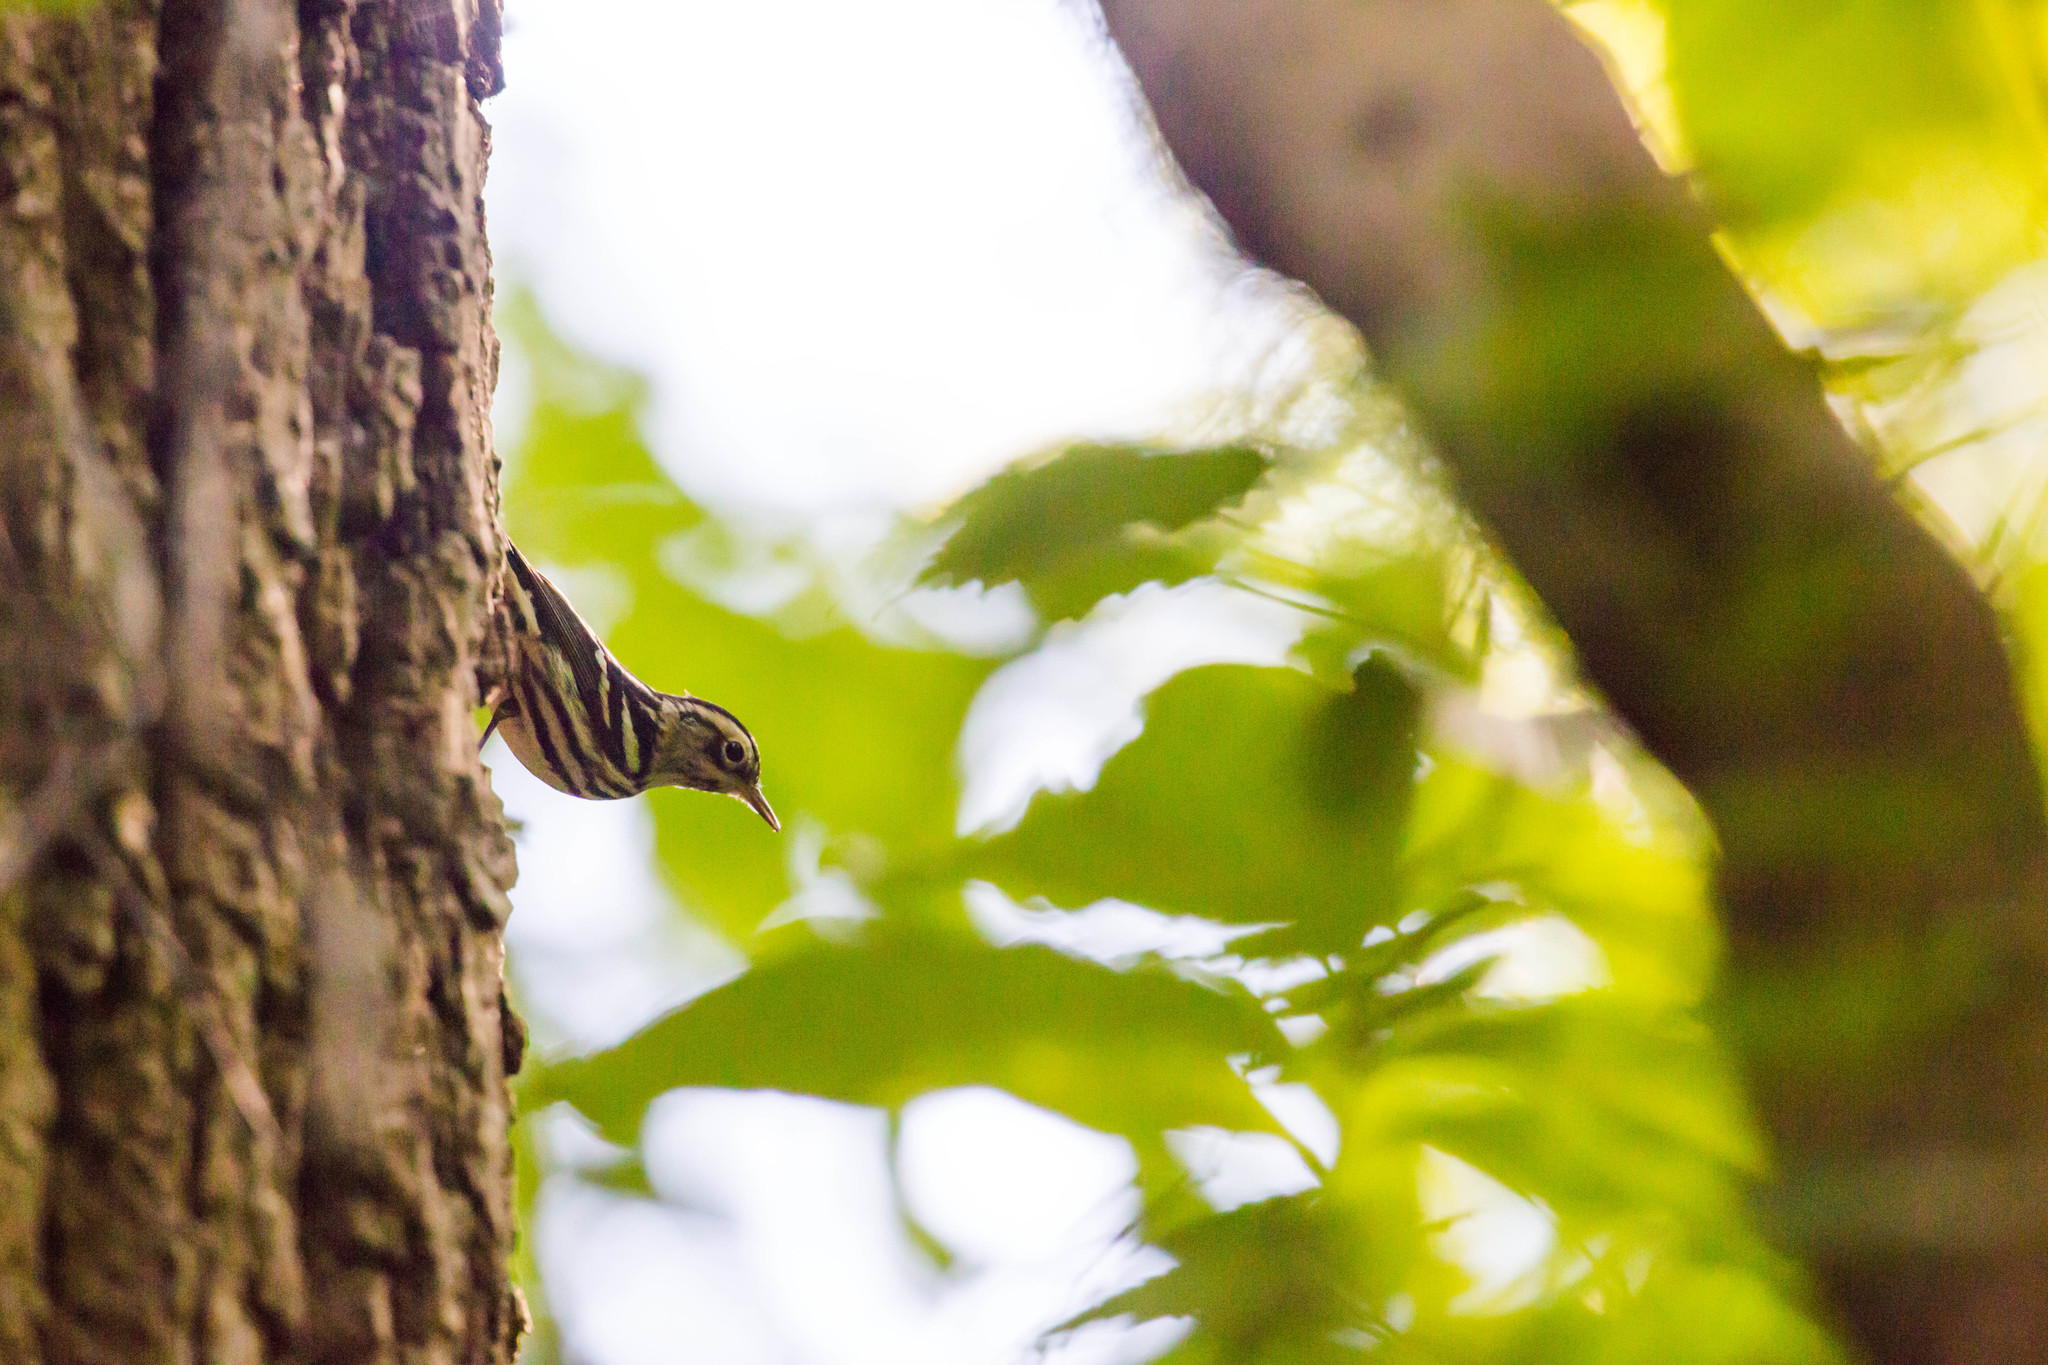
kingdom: Animalia
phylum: Chordata
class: Aves
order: Passeriformes
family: Parulidae
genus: Mniotilta
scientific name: Mniotilta varia
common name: Black-and-white warbler
